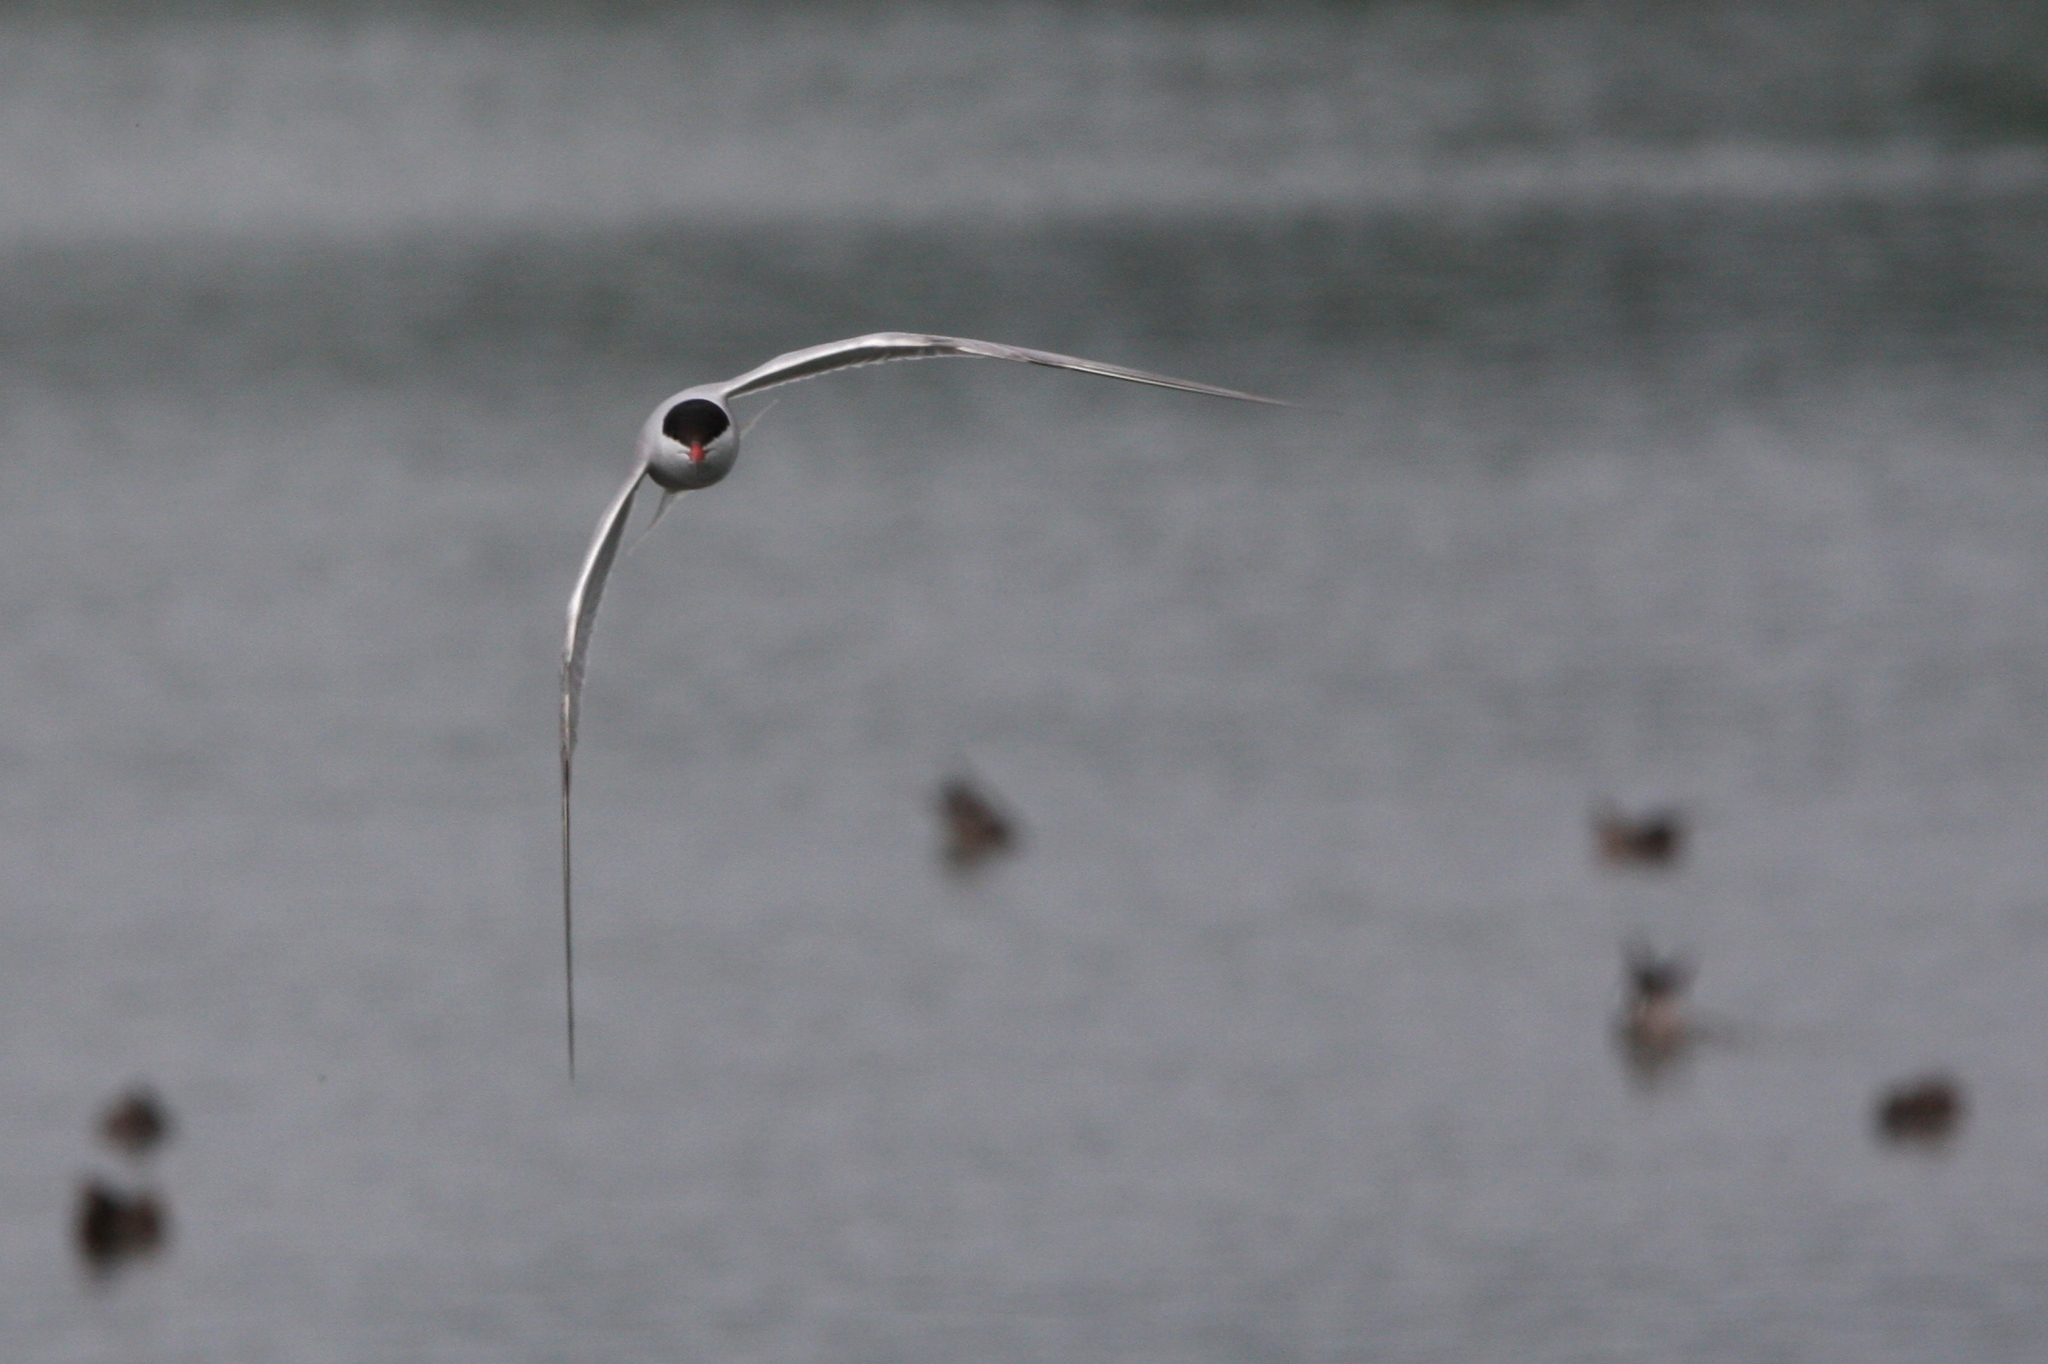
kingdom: Animalia
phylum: Chordata
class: Aves
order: Charadriiformes
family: Laridae
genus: Sterna
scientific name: Sterna hirundo
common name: Common tern
